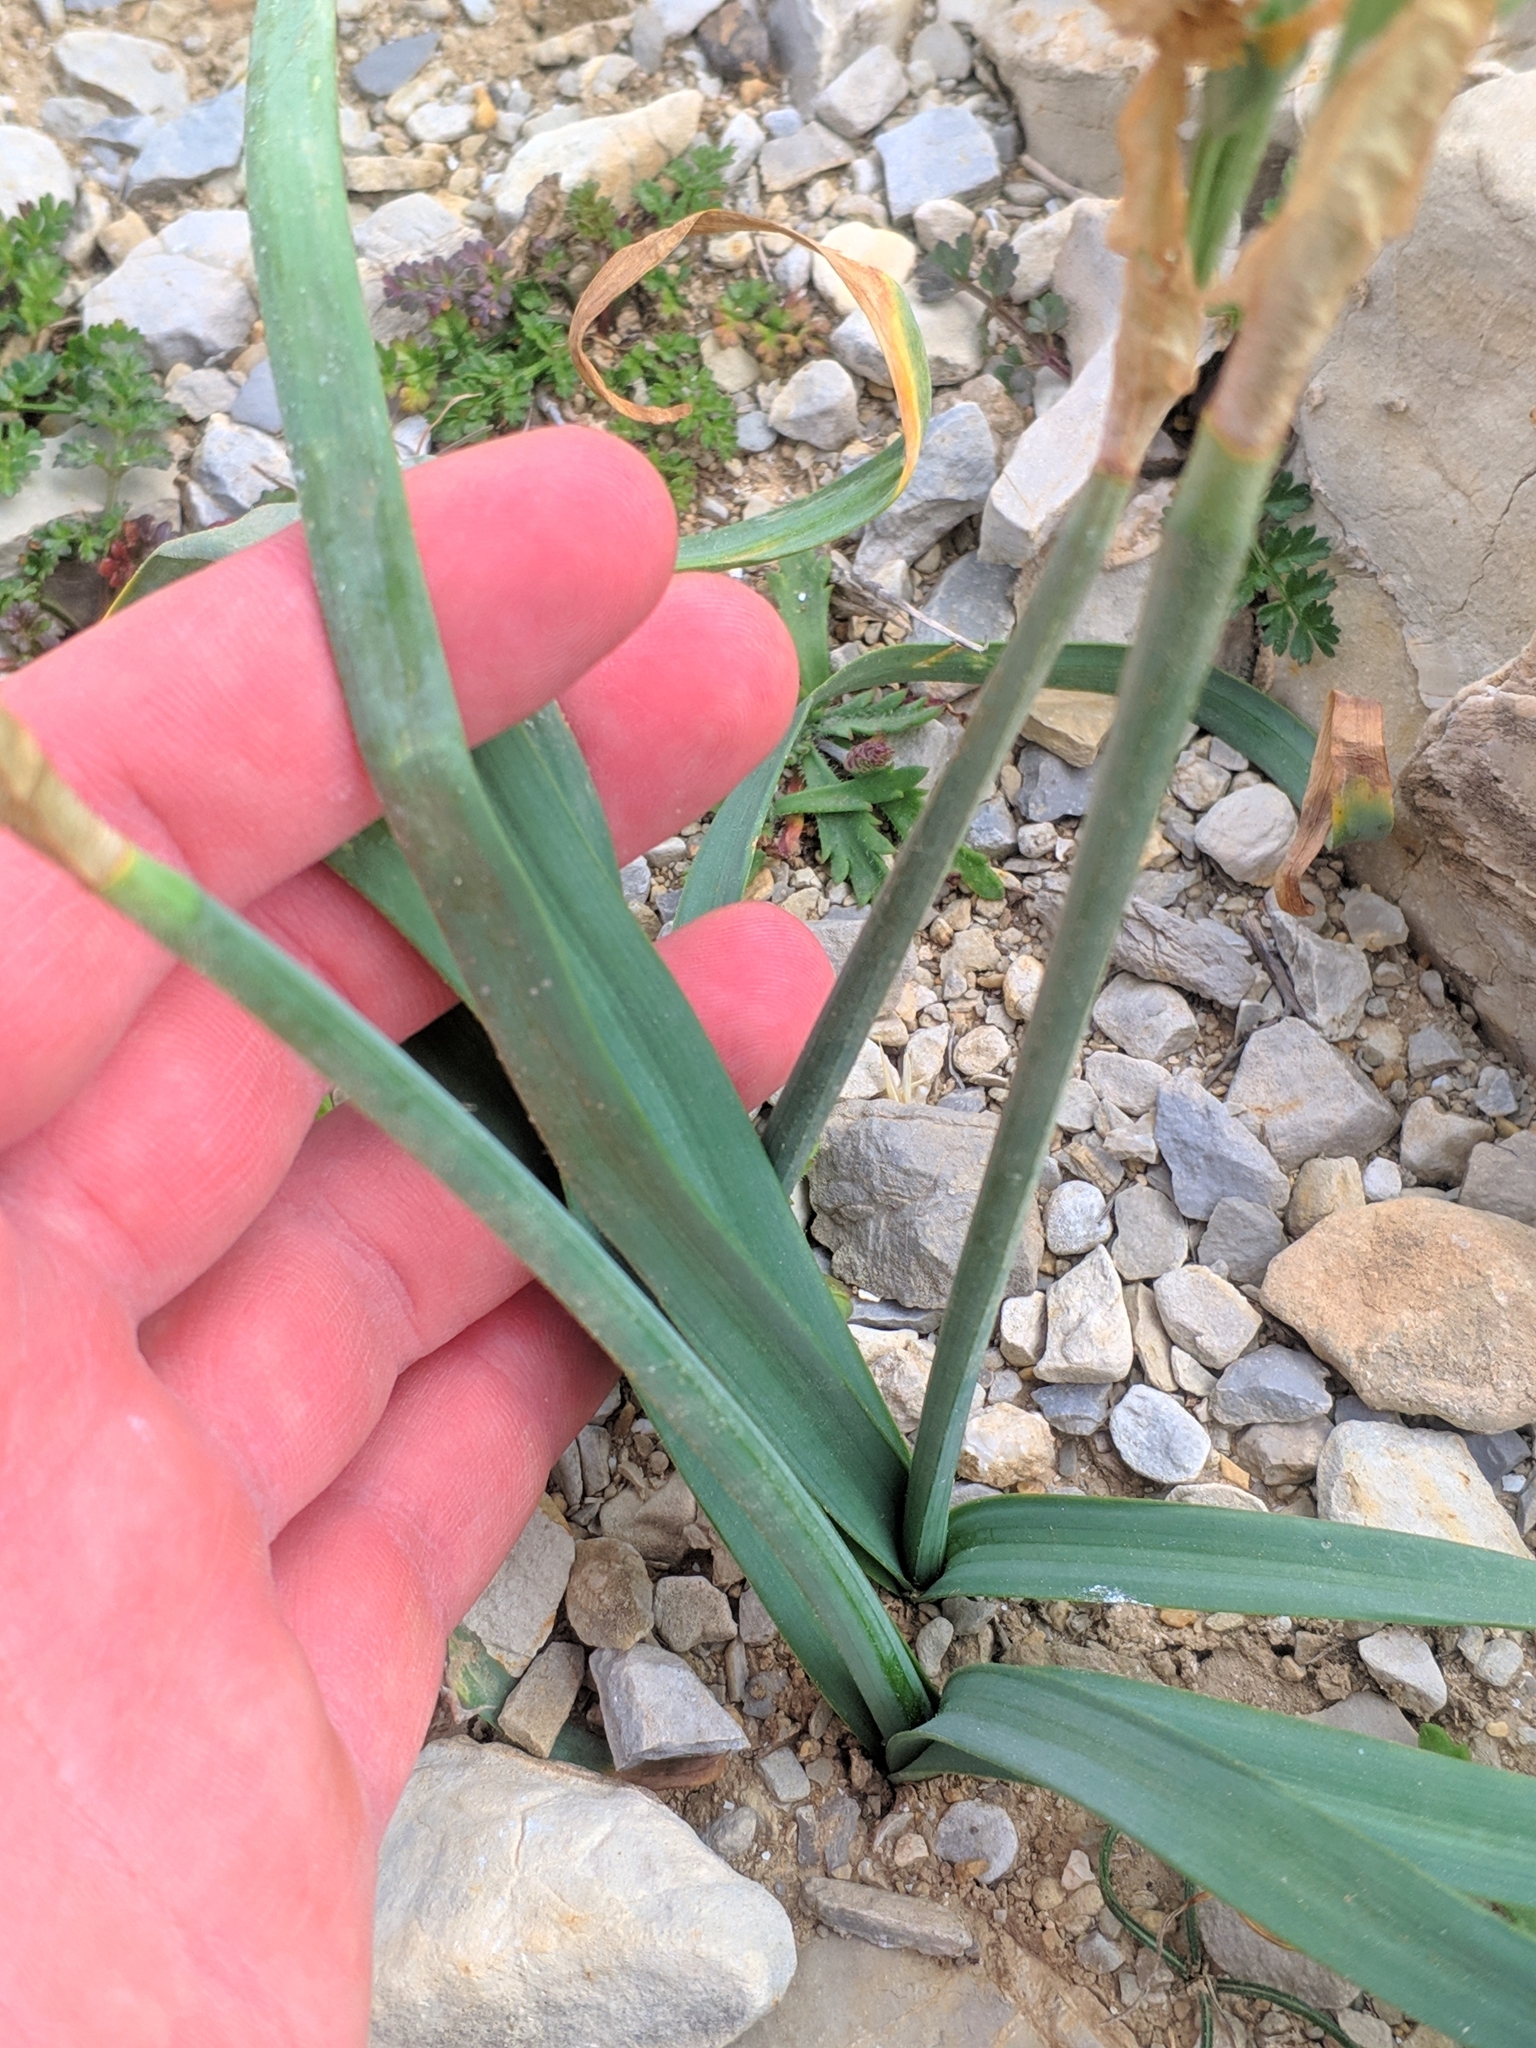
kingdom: Plantae
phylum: Tracheophyta
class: Liliopsida
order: Asparagales
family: Amaryllidaceae
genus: Narcissus
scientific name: Narcissus tazetta
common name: Bunch-flowered daffodil
